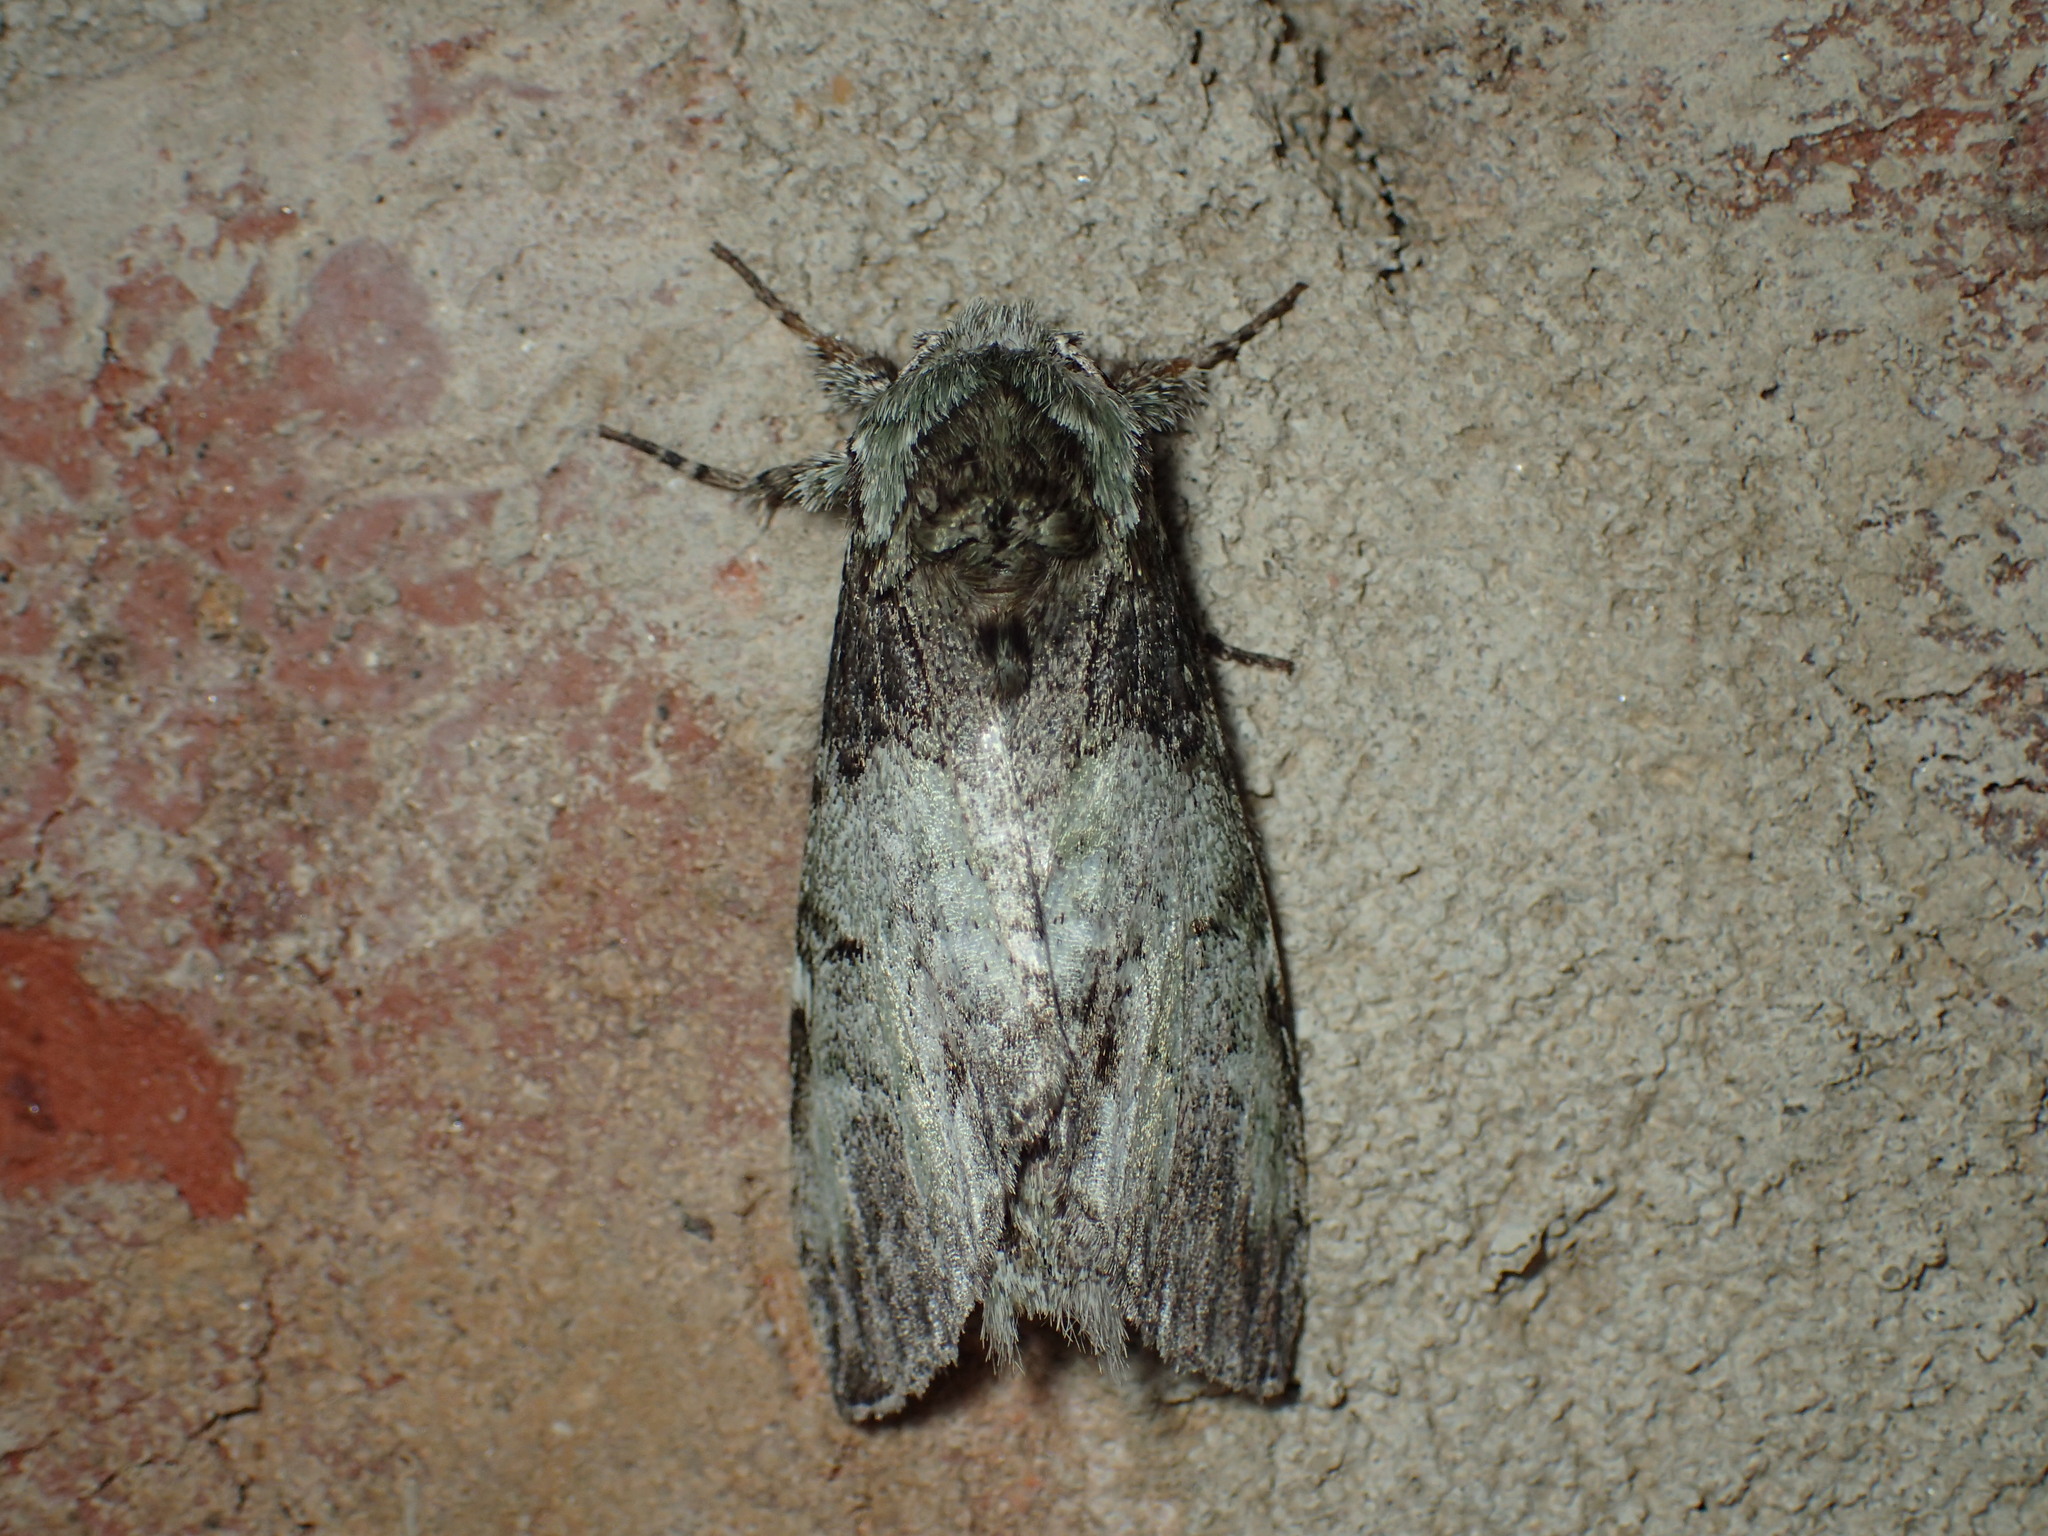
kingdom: Animalia
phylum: Arthropoda
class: Insecta
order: Lepidoptera
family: Notodontidae
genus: Macrurocampa
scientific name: Macrurocampa marthesia
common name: Mottled prominent
